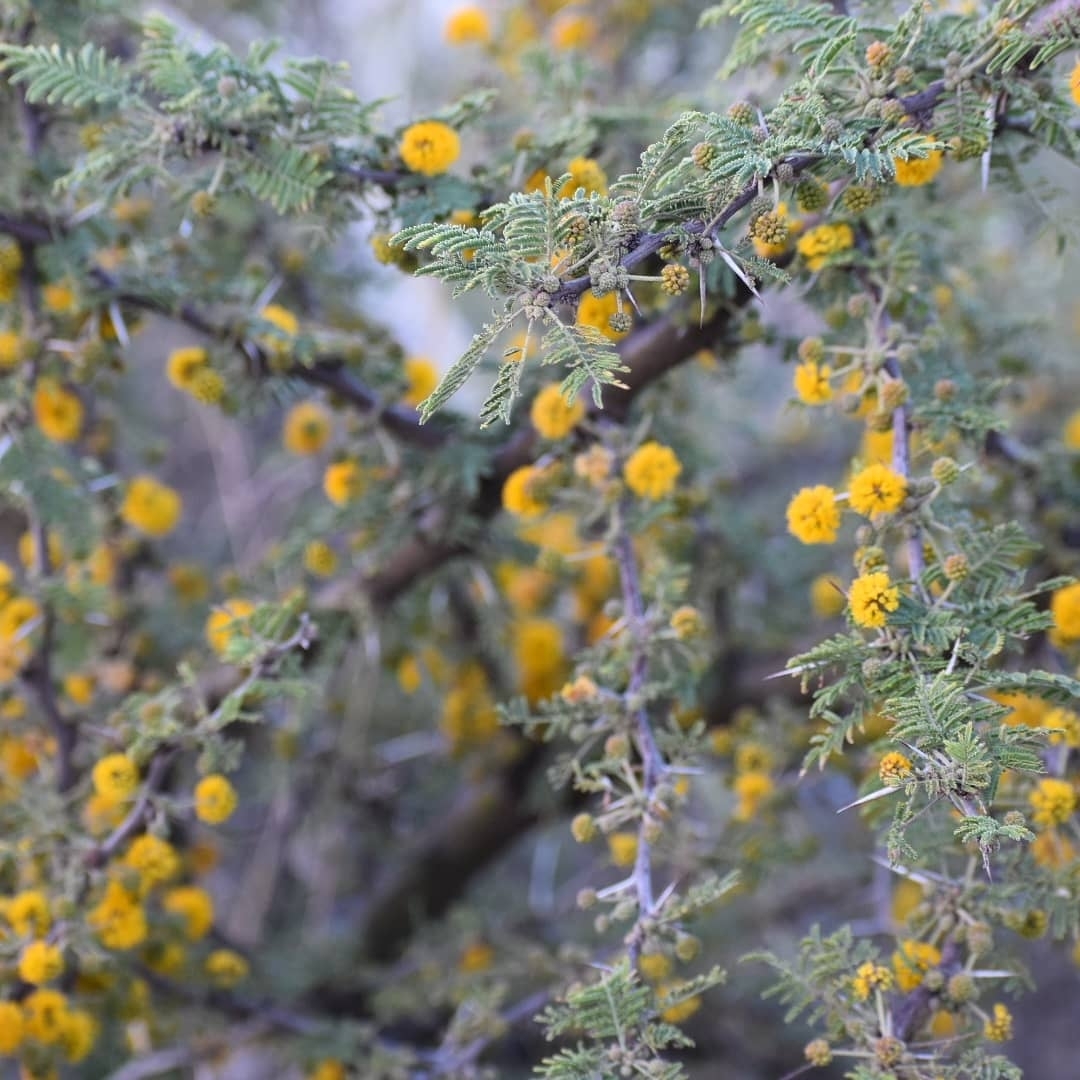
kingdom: Plantae
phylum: Tracheophyta
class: Magnoliopsida
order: Fabales
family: Fabaceae
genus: Vachellia
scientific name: Vachellia caven
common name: Roman cassie
